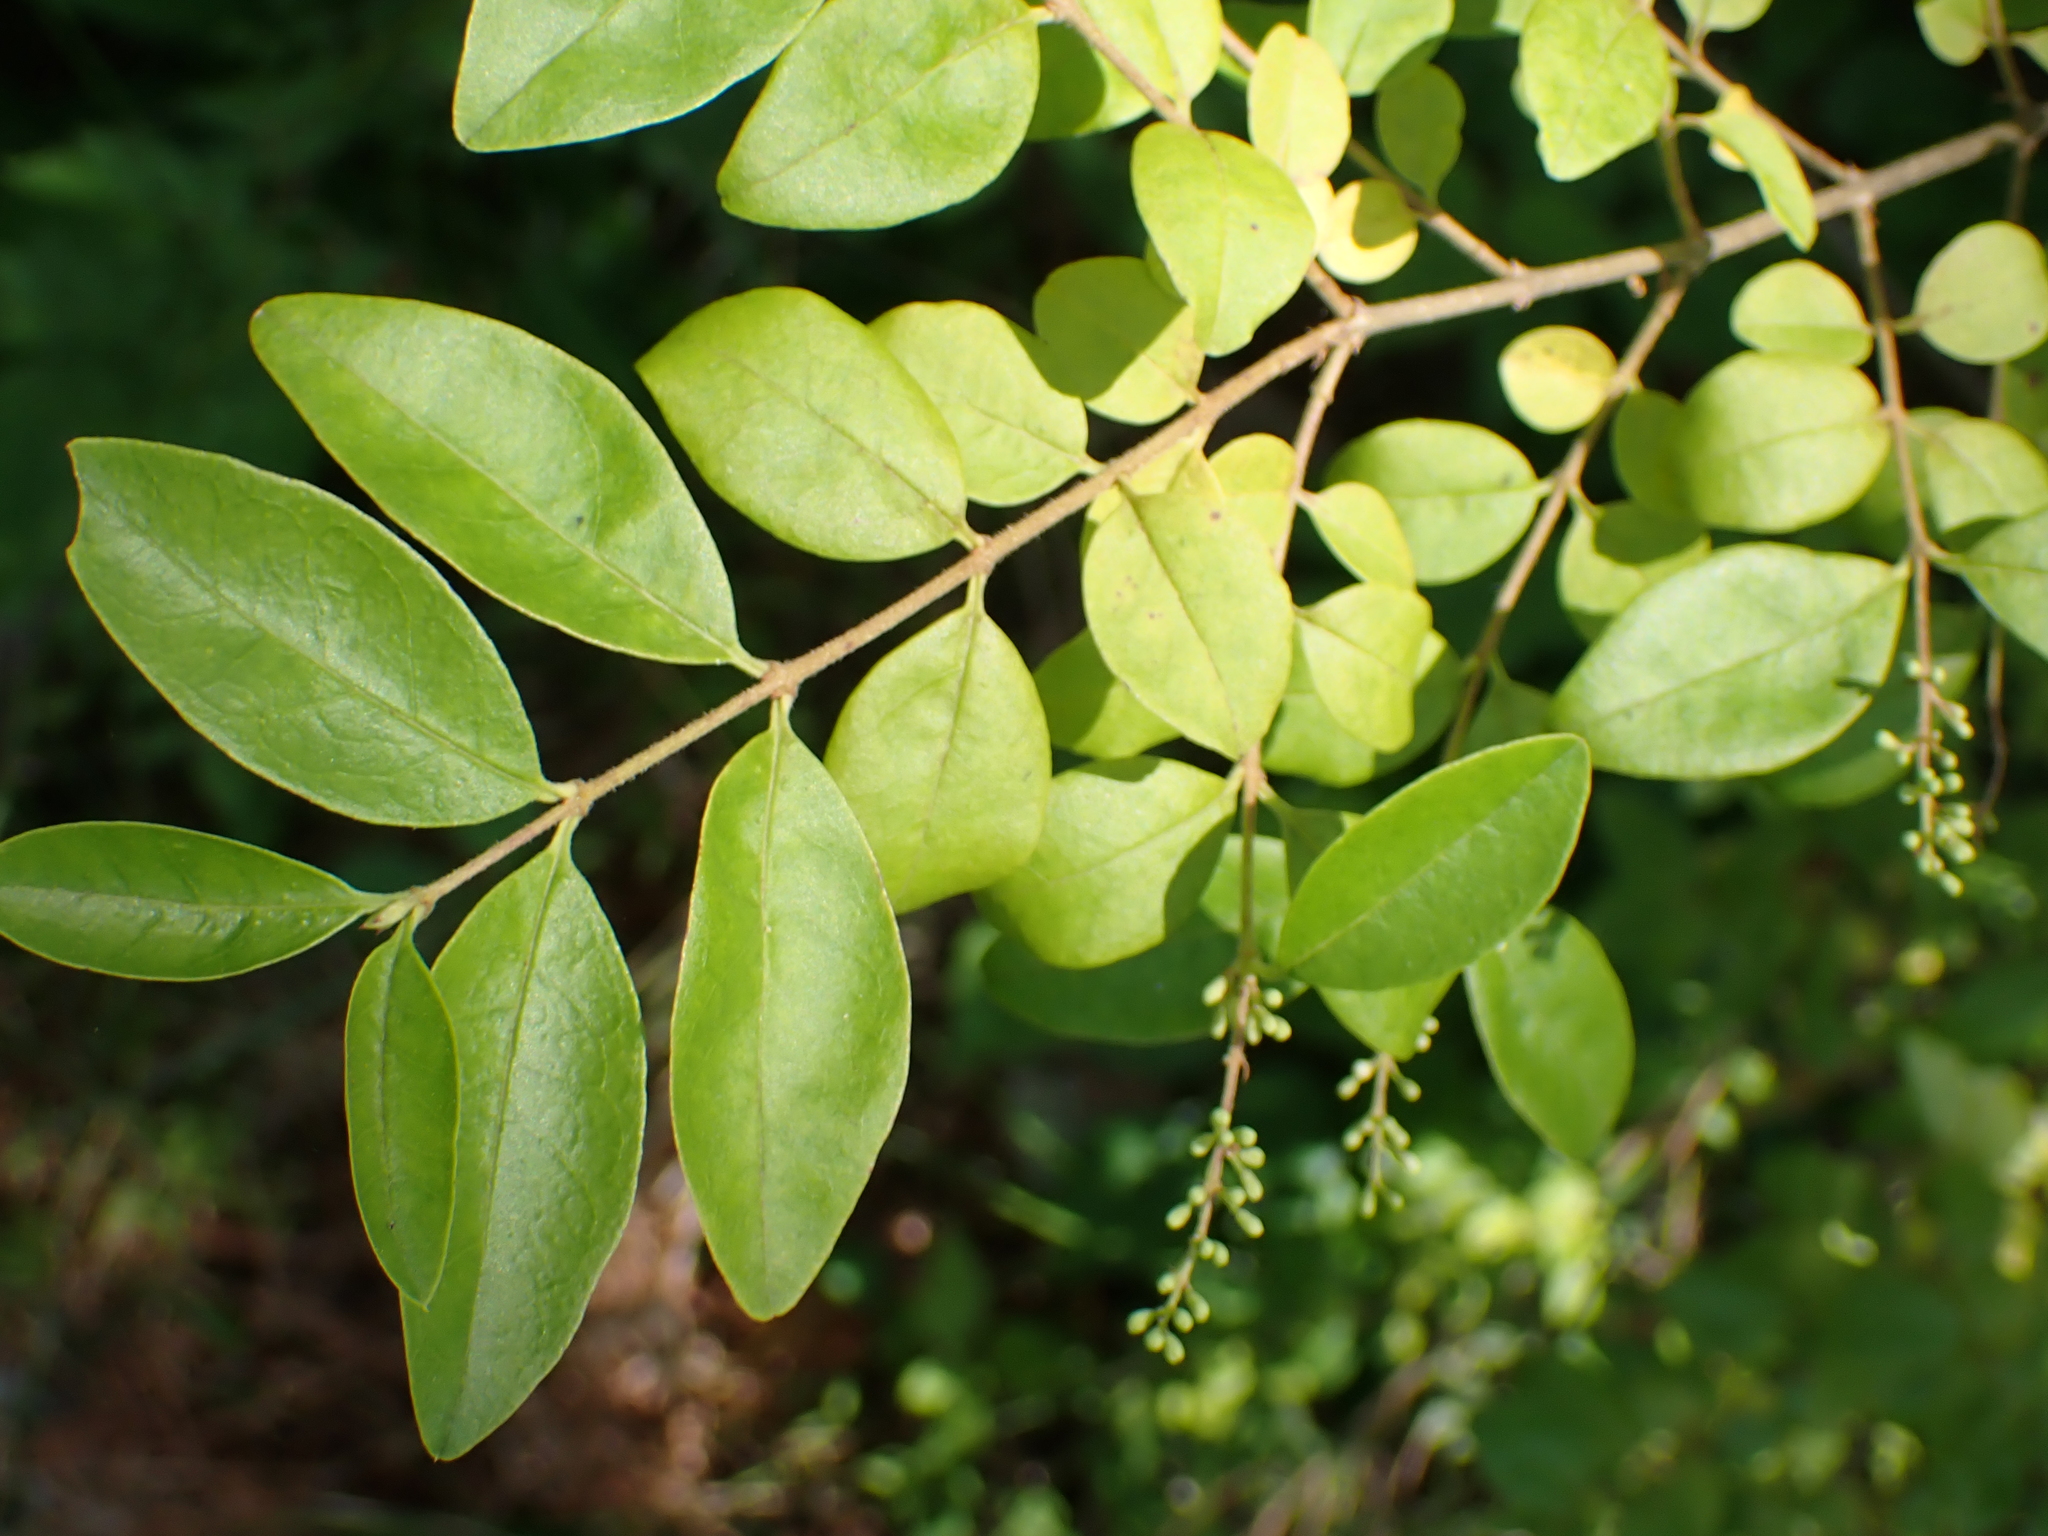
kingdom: Plantae
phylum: Tracheophyta
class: Magnoliopsida
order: Lamiales
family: Oleaceae
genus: Ligustrum
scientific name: Ligustrum sinense
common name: Chinese privet
